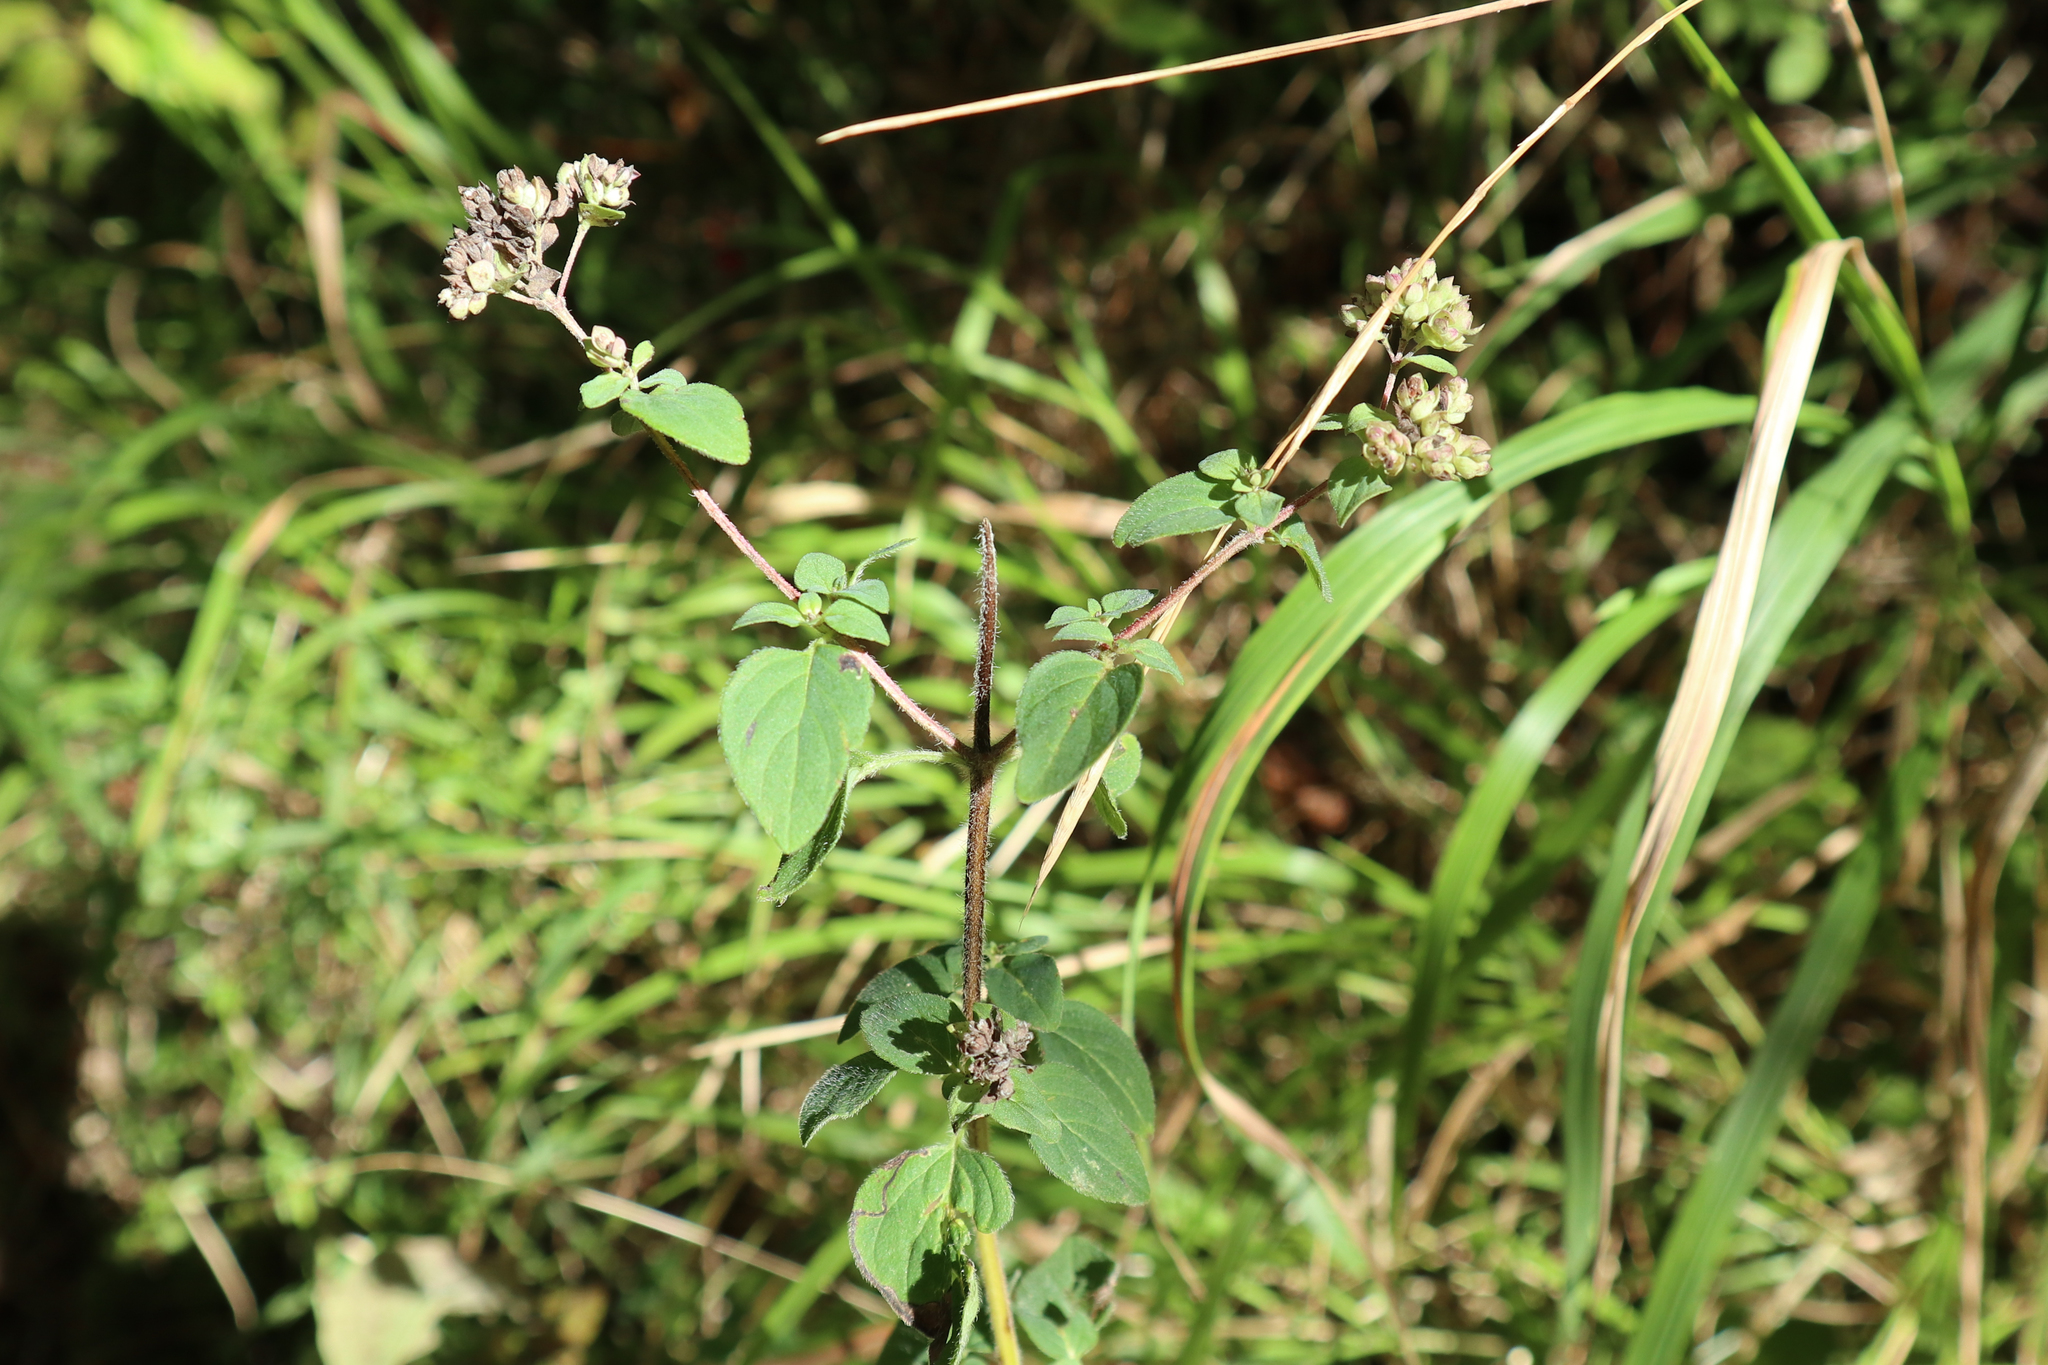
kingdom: Plantae
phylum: Tracheophyta
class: Magnoliopsida
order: Lamiales
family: Lamiaceae
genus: Origanum
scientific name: Origanum vulgare
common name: Wild marjoram
